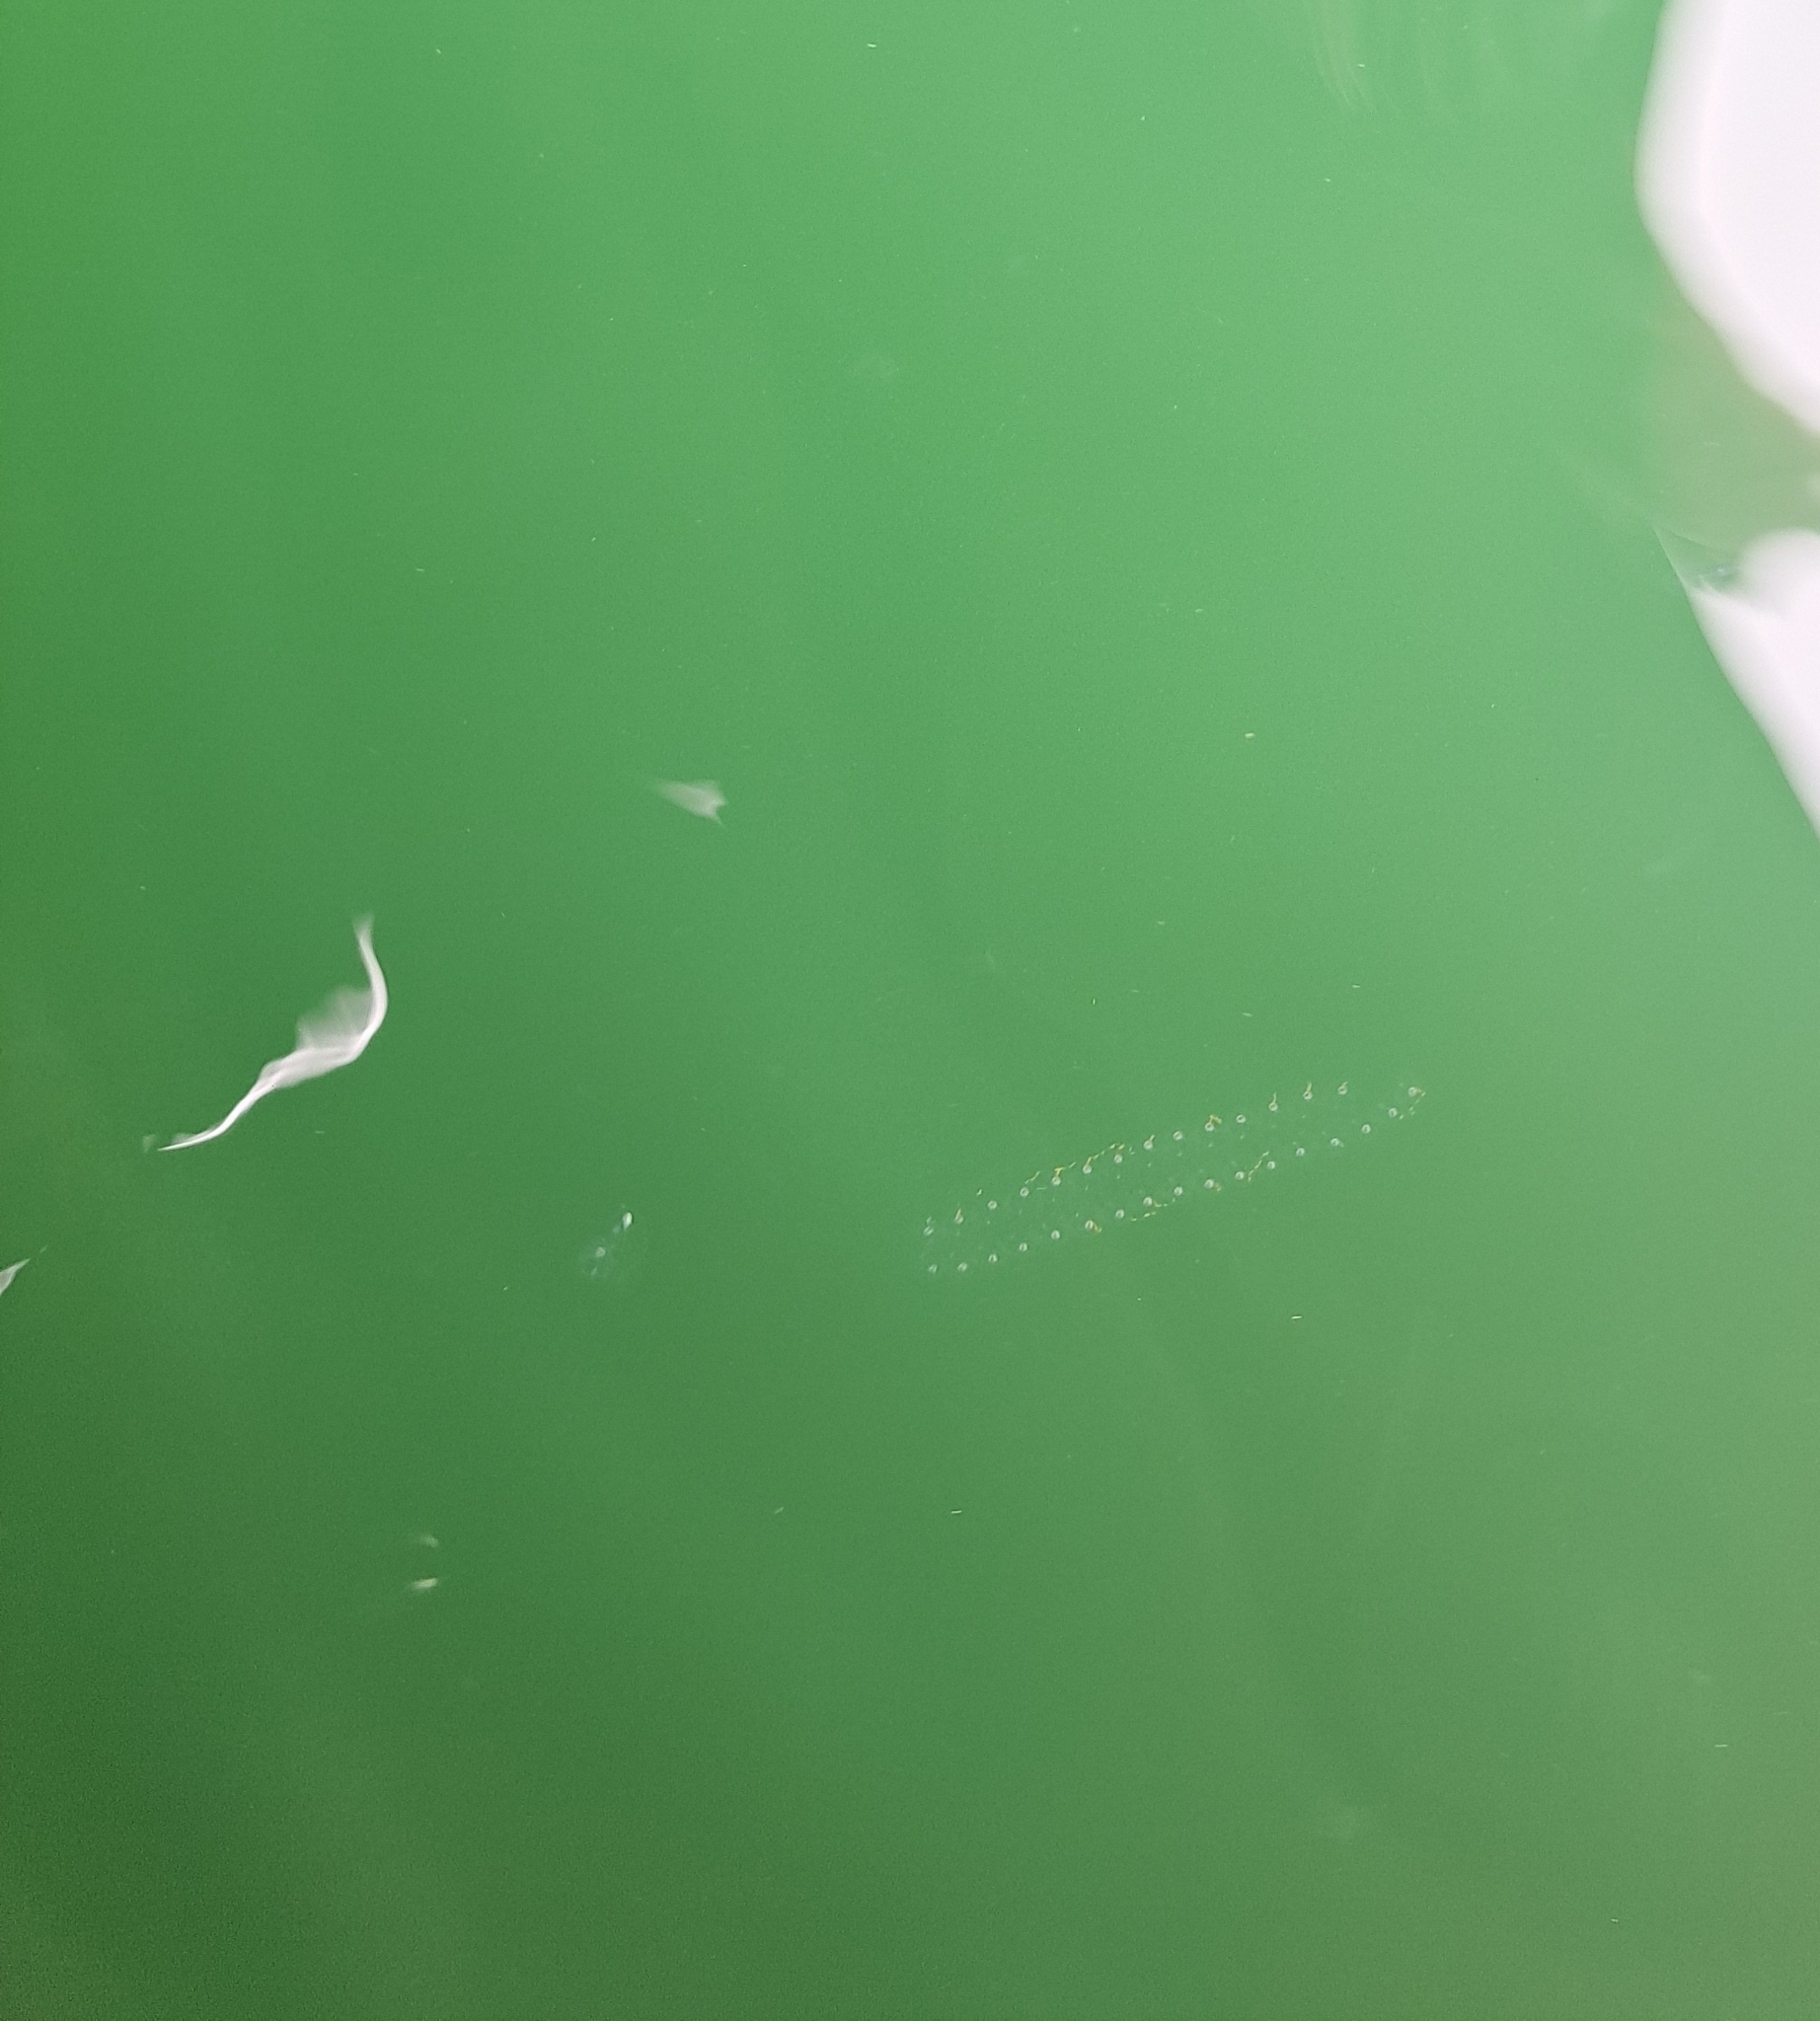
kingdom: Animalia
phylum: Chordata
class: Thaliacea
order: Salpida
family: Salpidae
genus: Thalia
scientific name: Thalia democratica
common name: Salp
